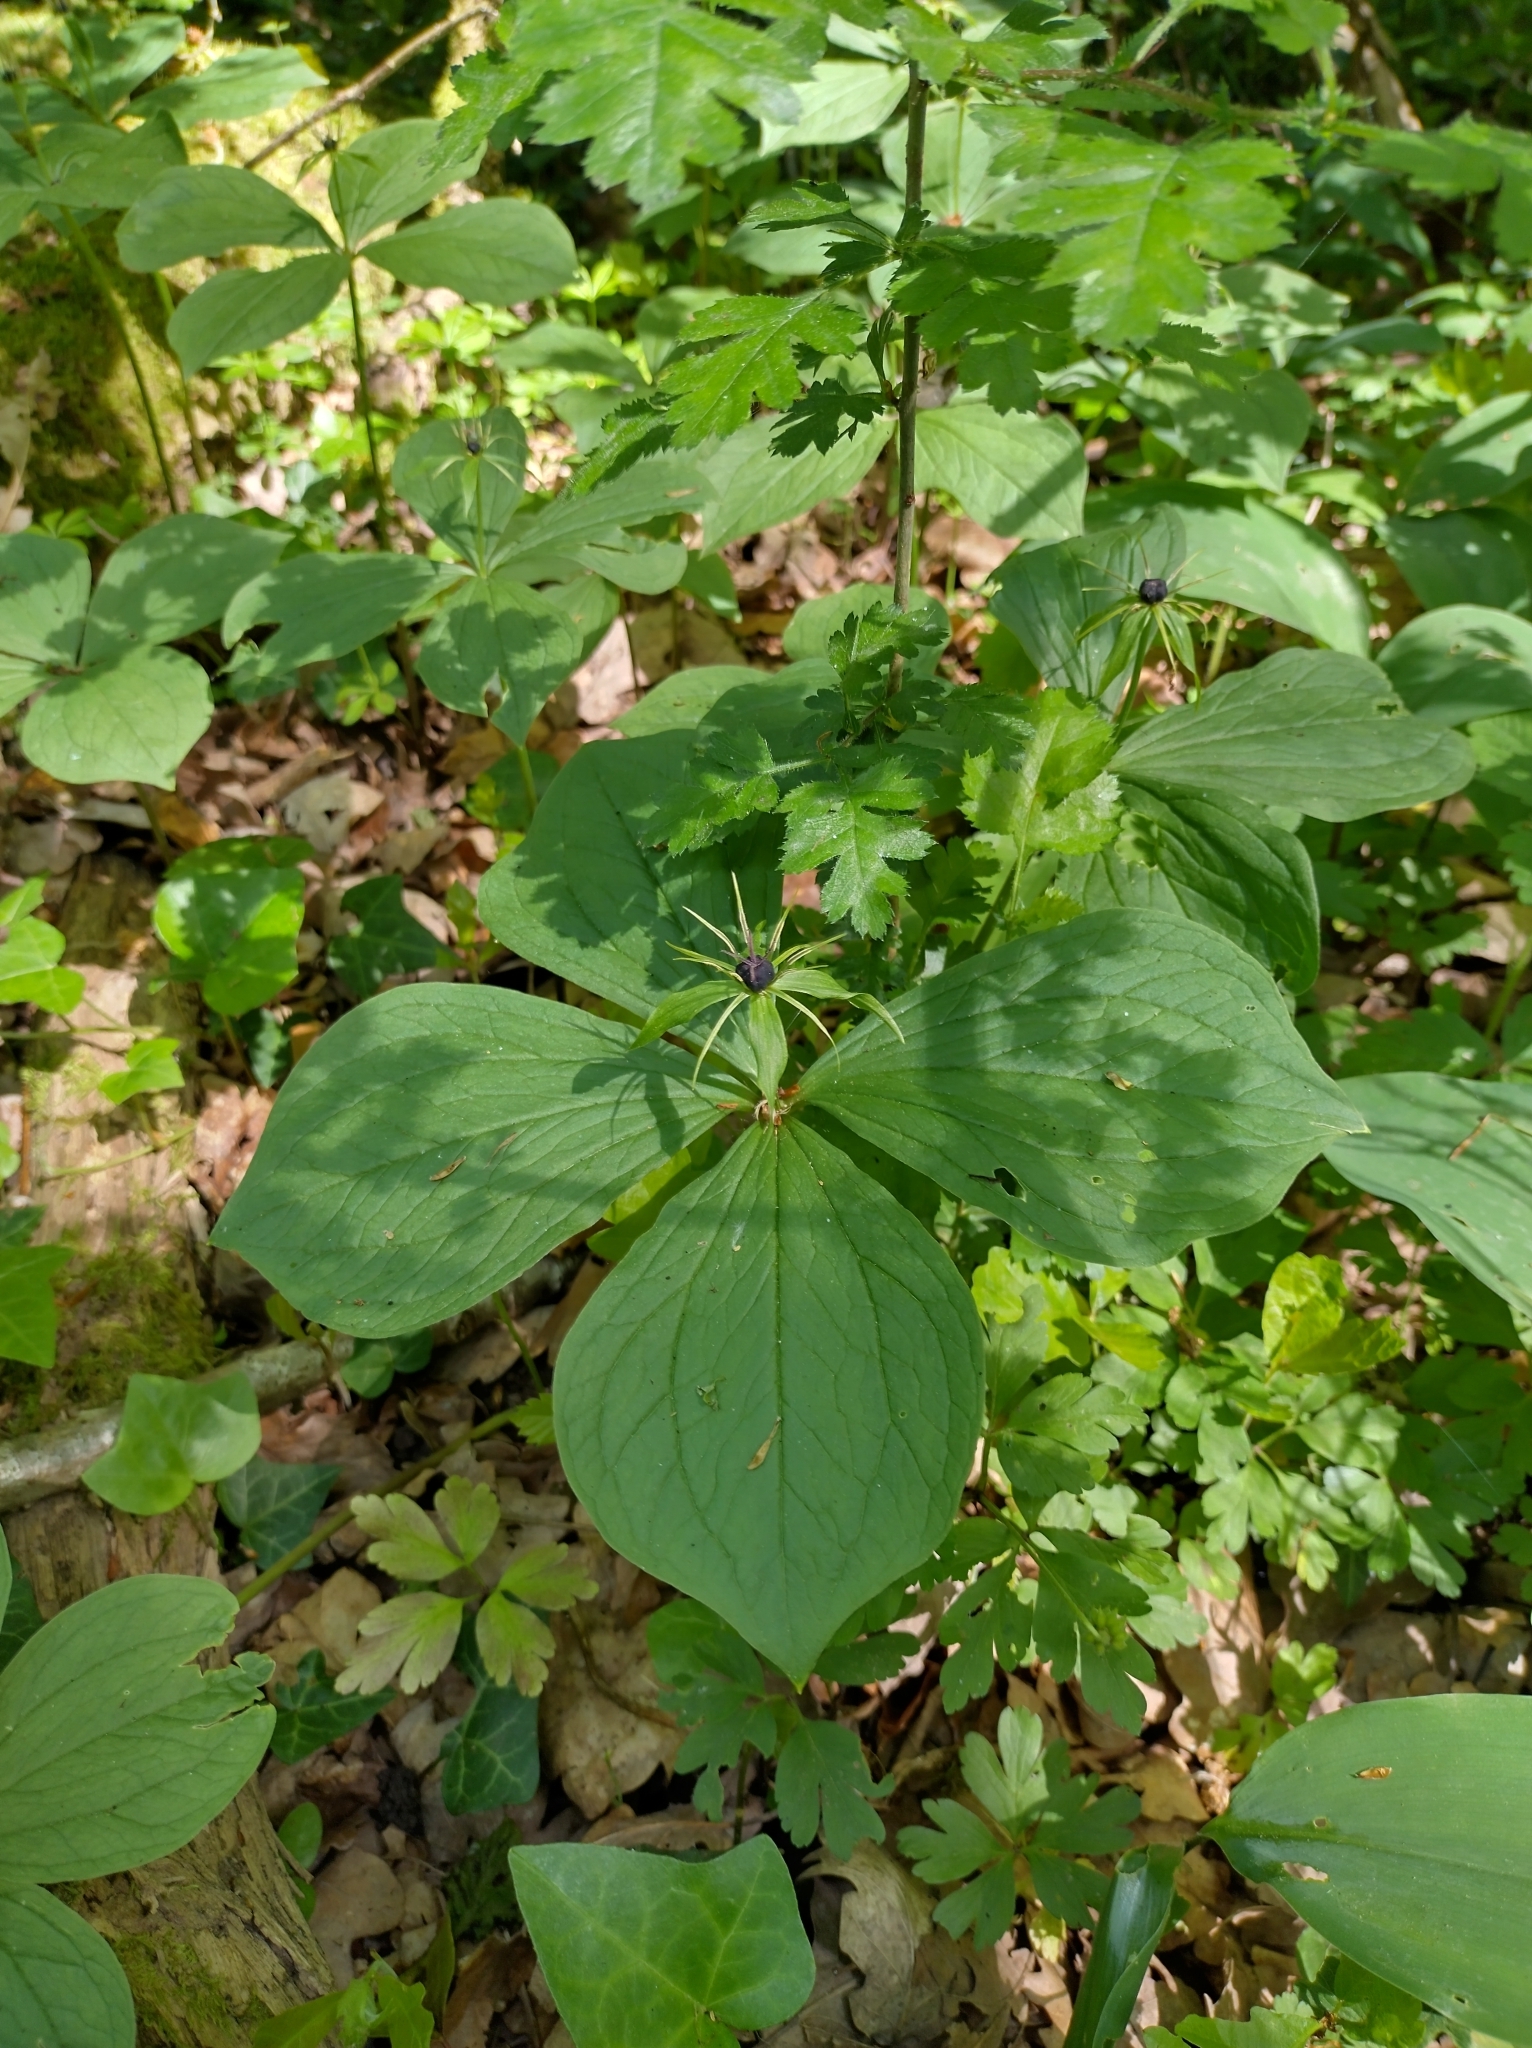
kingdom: Plantae
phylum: Tracheophyta
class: Liliopsida
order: Liliales
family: Melanthiaceae
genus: Paris
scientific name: Paris quadrifolia
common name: Herb-paris
